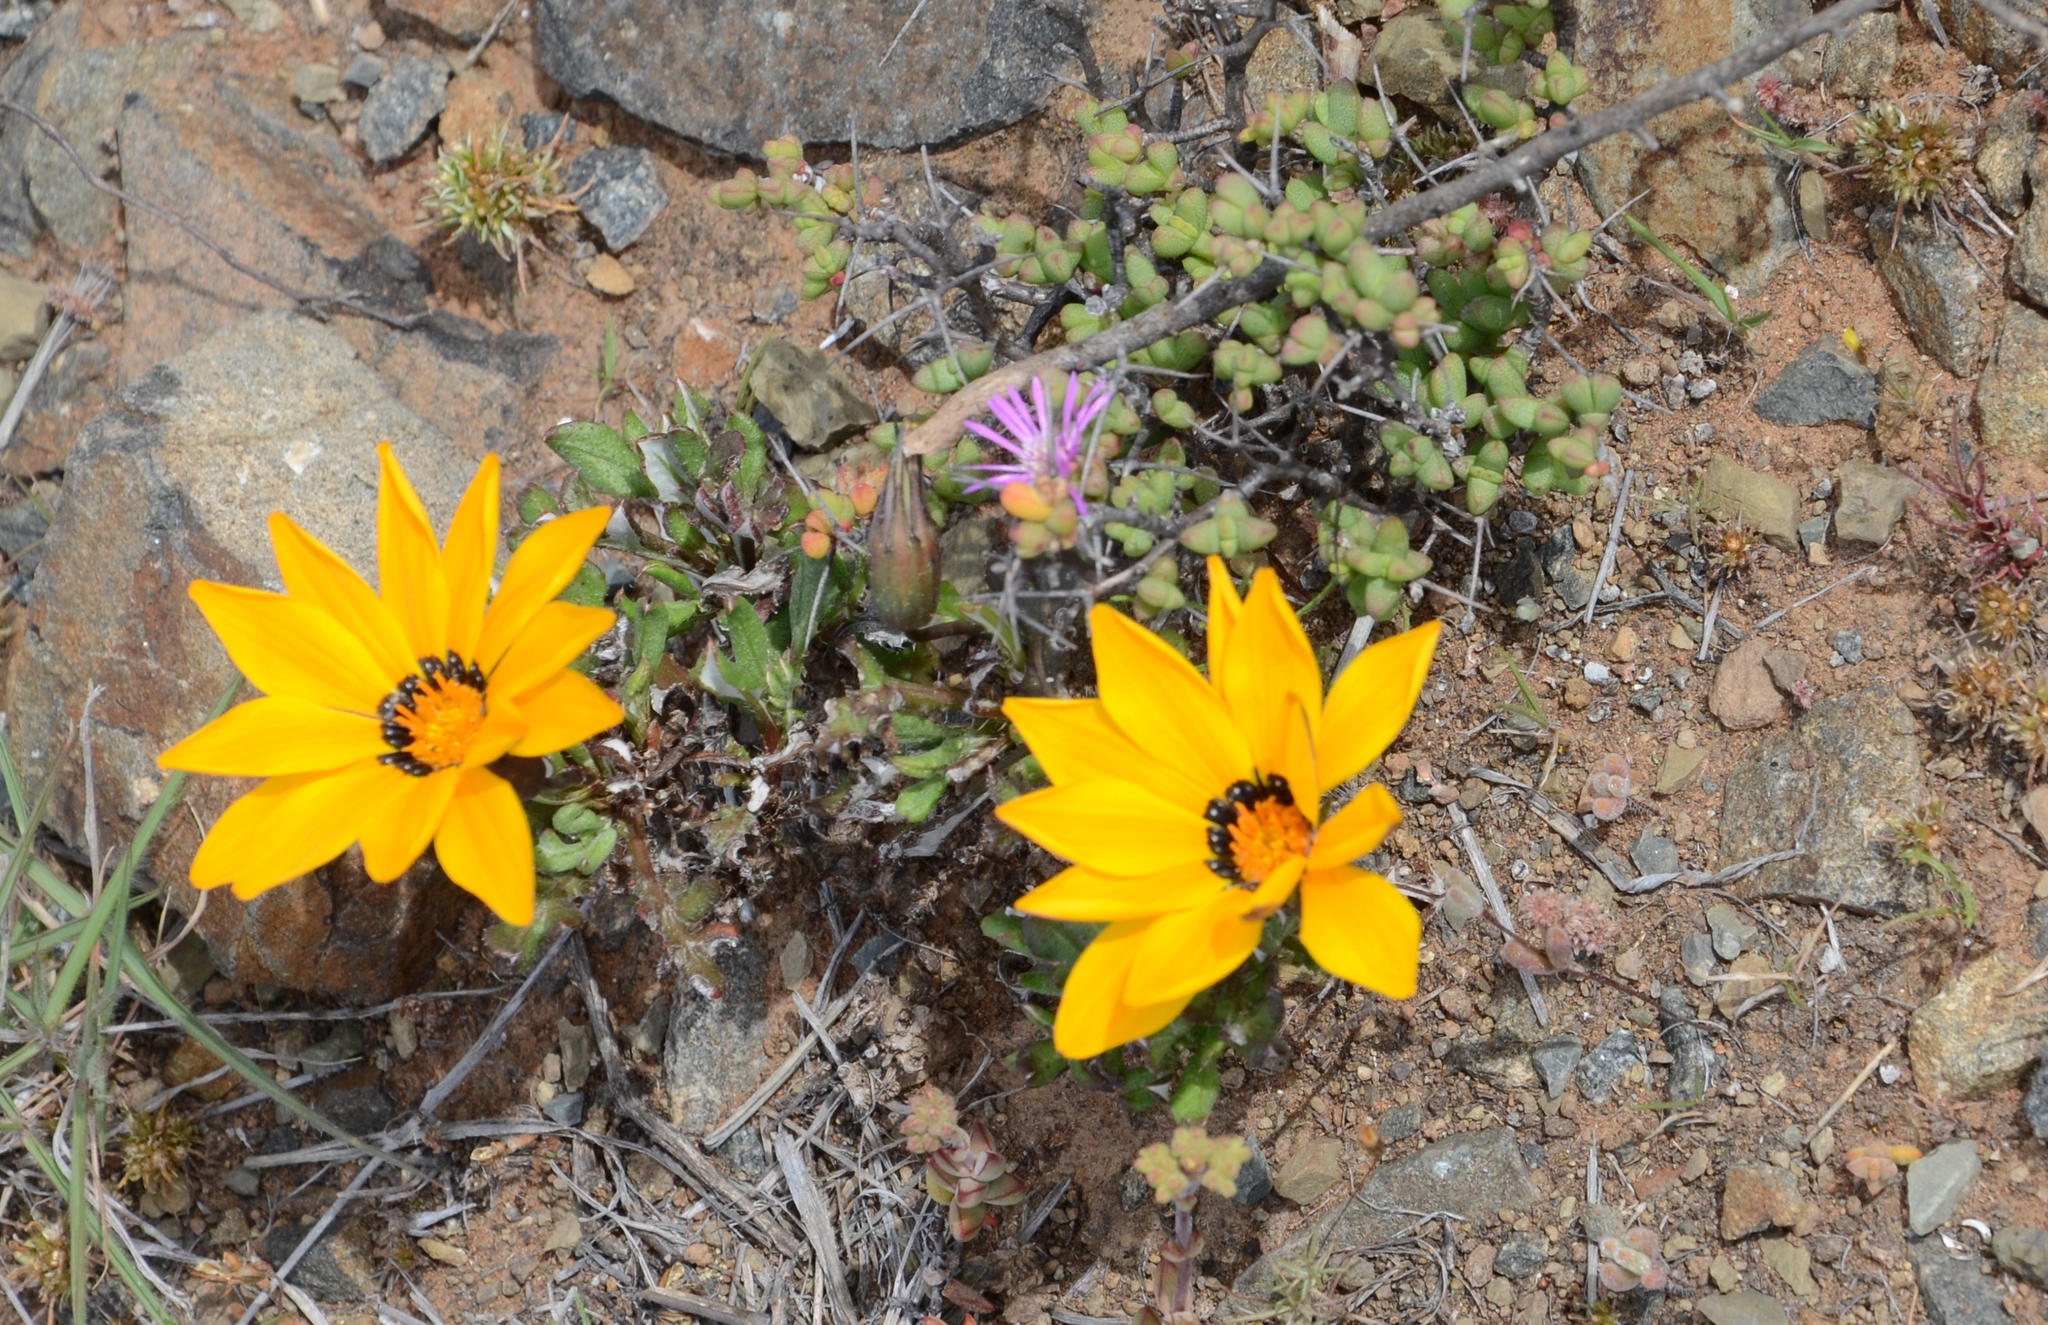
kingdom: Plantae
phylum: Tracheophyta
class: Magnoliopsida
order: Asterales
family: Asteraceae
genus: Gazania
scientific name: Gazania heterochaeta
